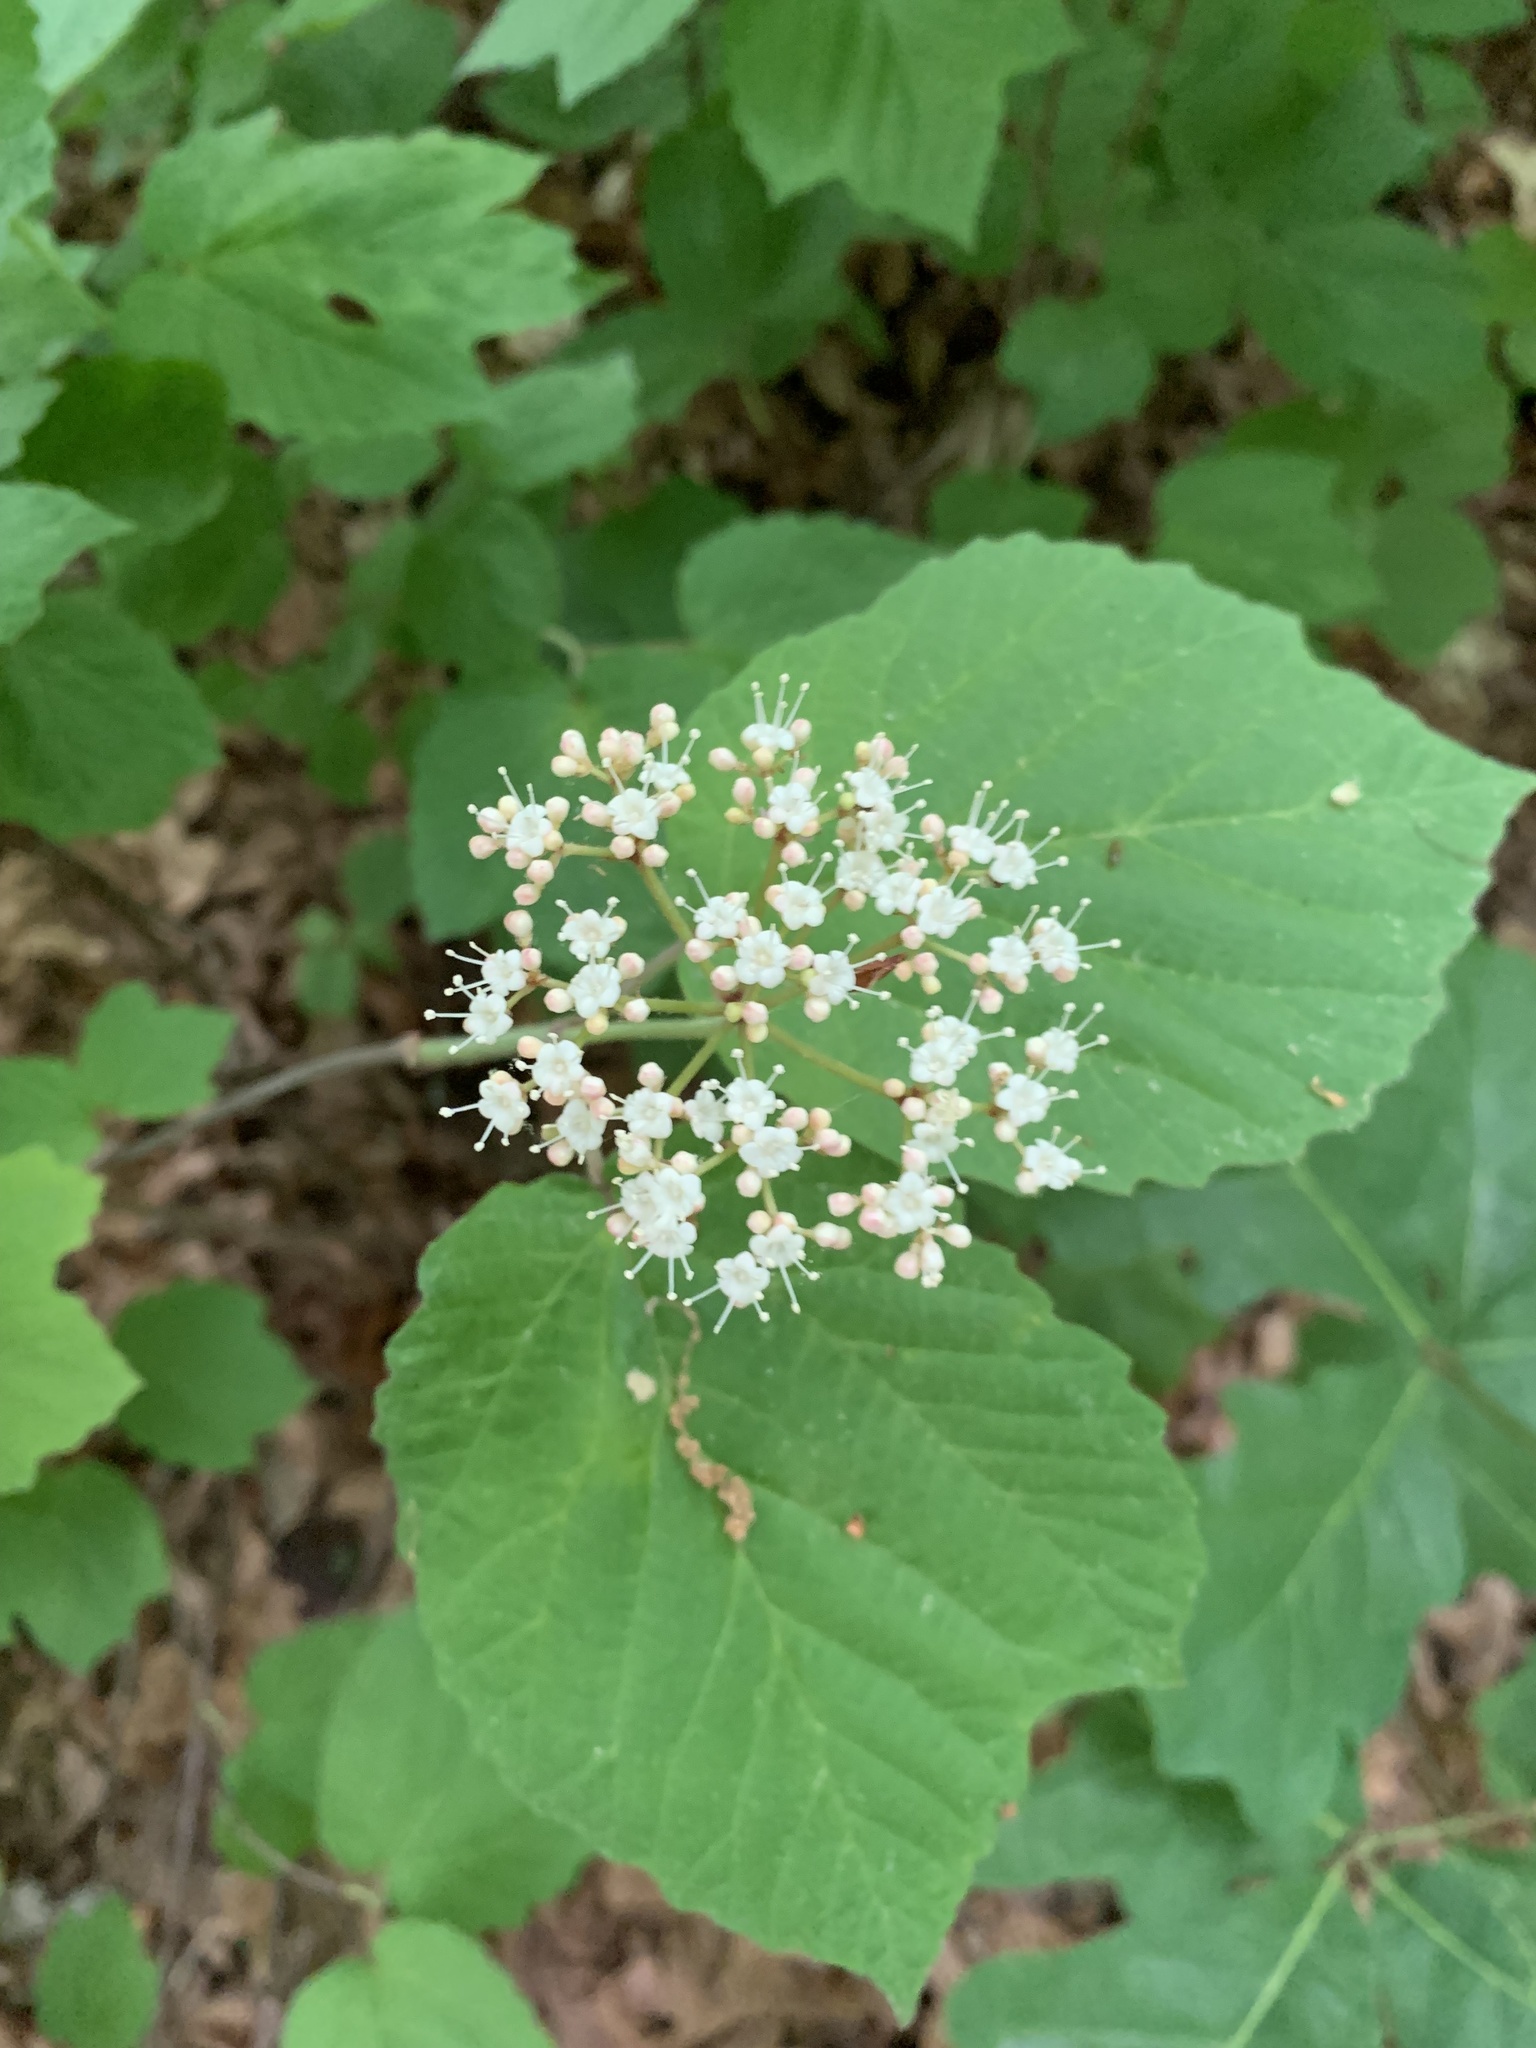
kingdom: Plantae
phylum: Tracheophyta
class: Magnoliopsida
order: Dipsacales
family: Viburnaceae
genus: Viburnum
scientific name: Viburnum acerifolium
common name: Dockmackie
